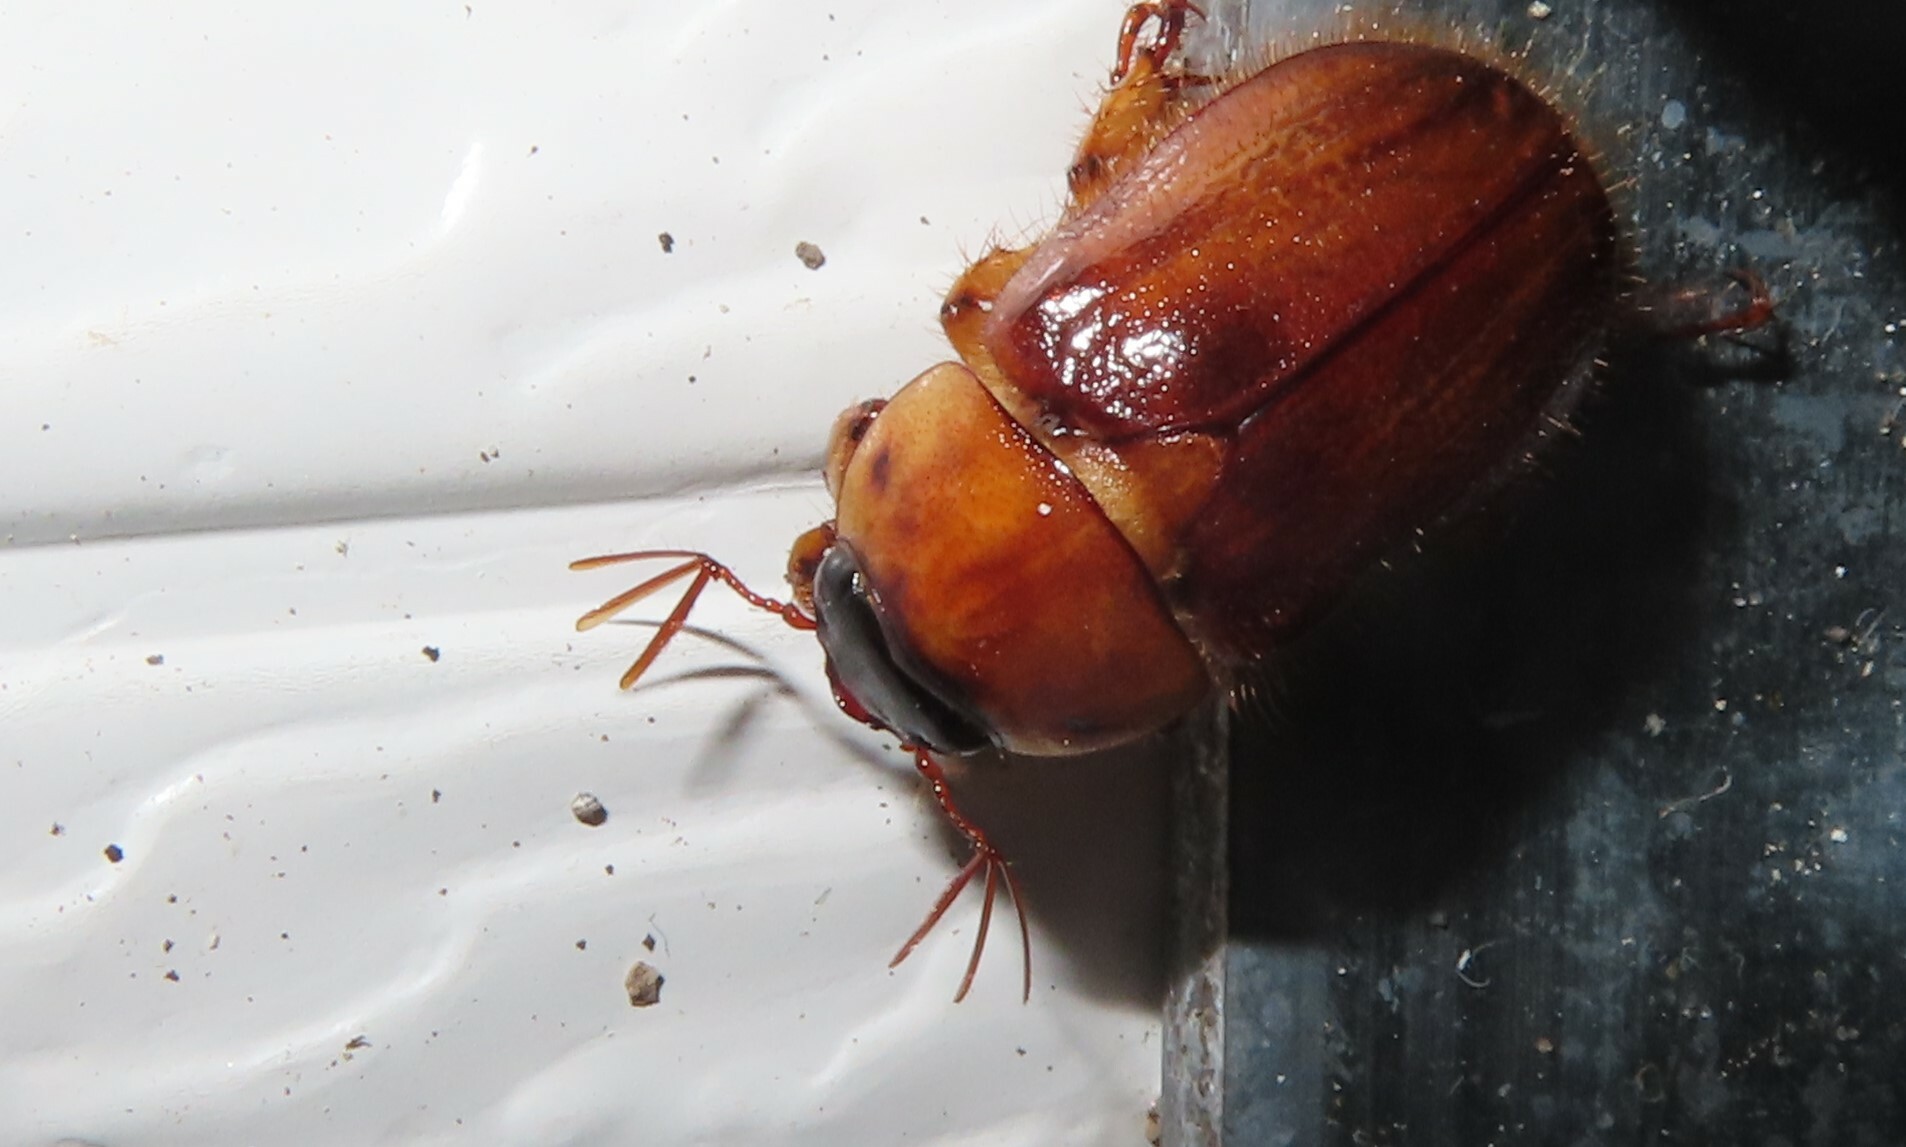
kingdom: Animalia
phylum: Arthropoda
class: Insecta
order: Coleoptera
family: Scarabaeidae
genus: Cyclocephala
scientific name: Cyclocephala lurida
